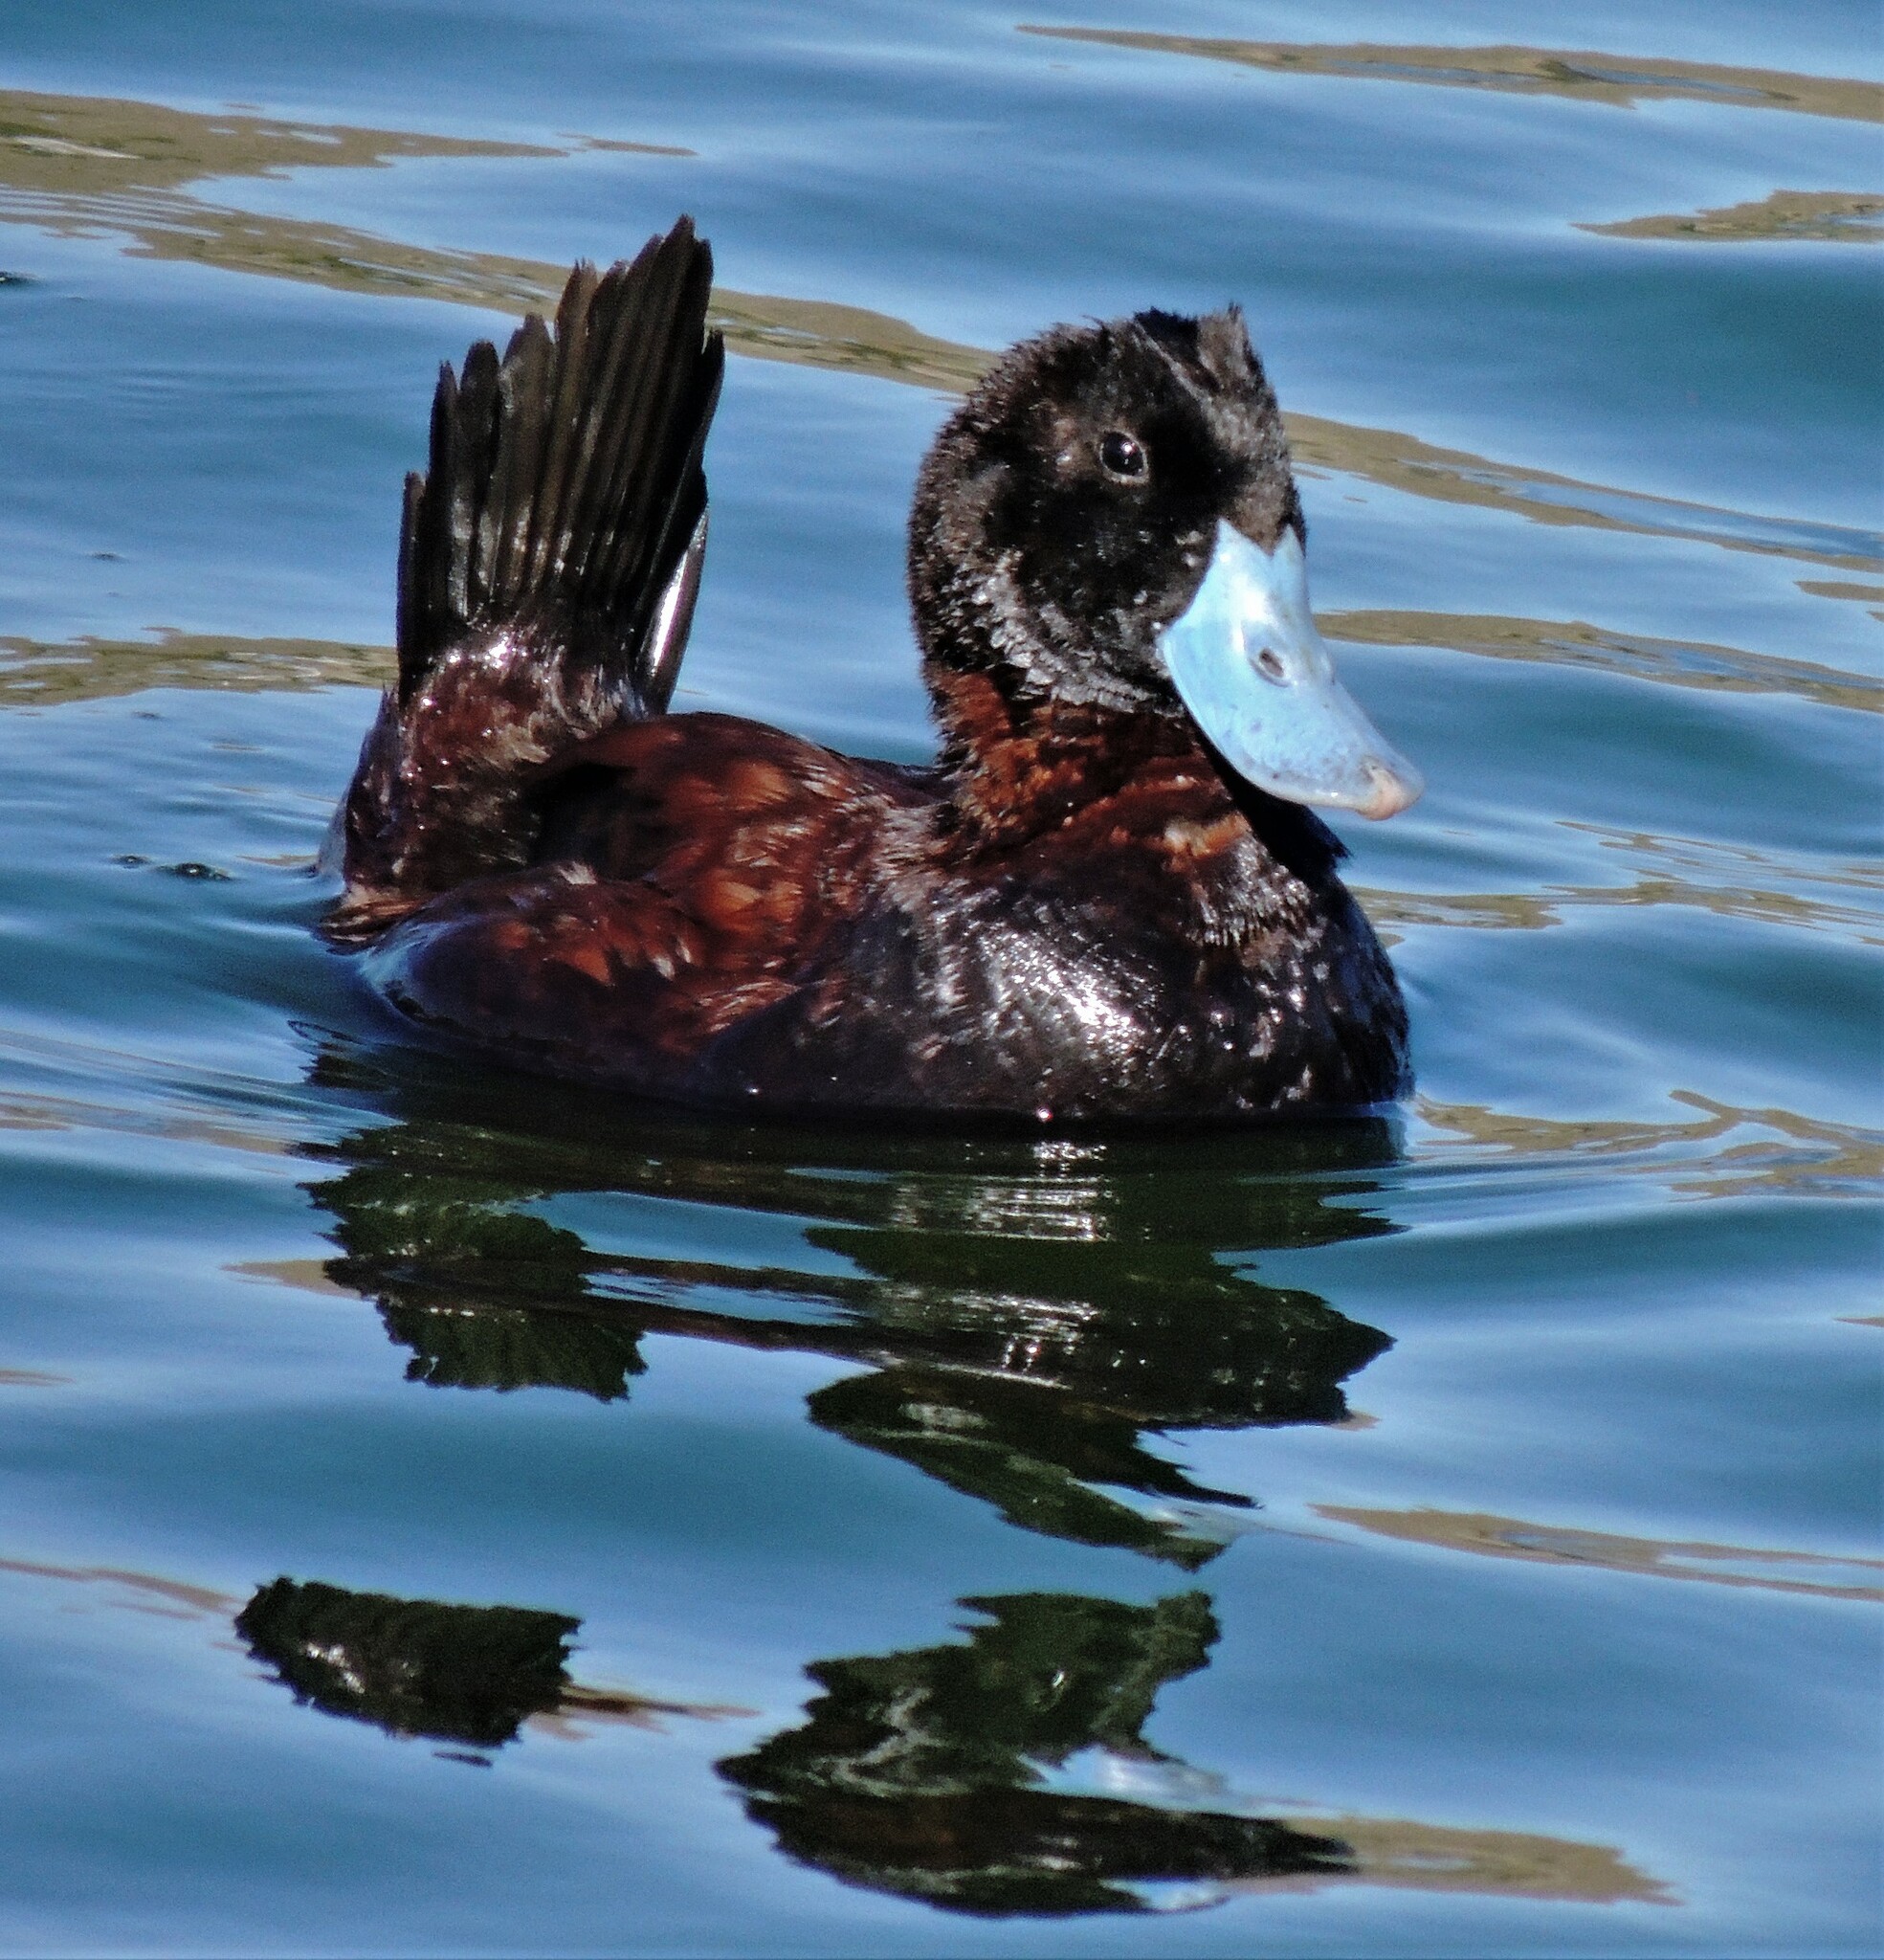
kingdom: Animalia
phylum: Chordata
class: Aves
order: Anseriformes
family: Anatidae
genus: Oxyura
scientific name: Oxyura ferruginea
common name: Andean duck
